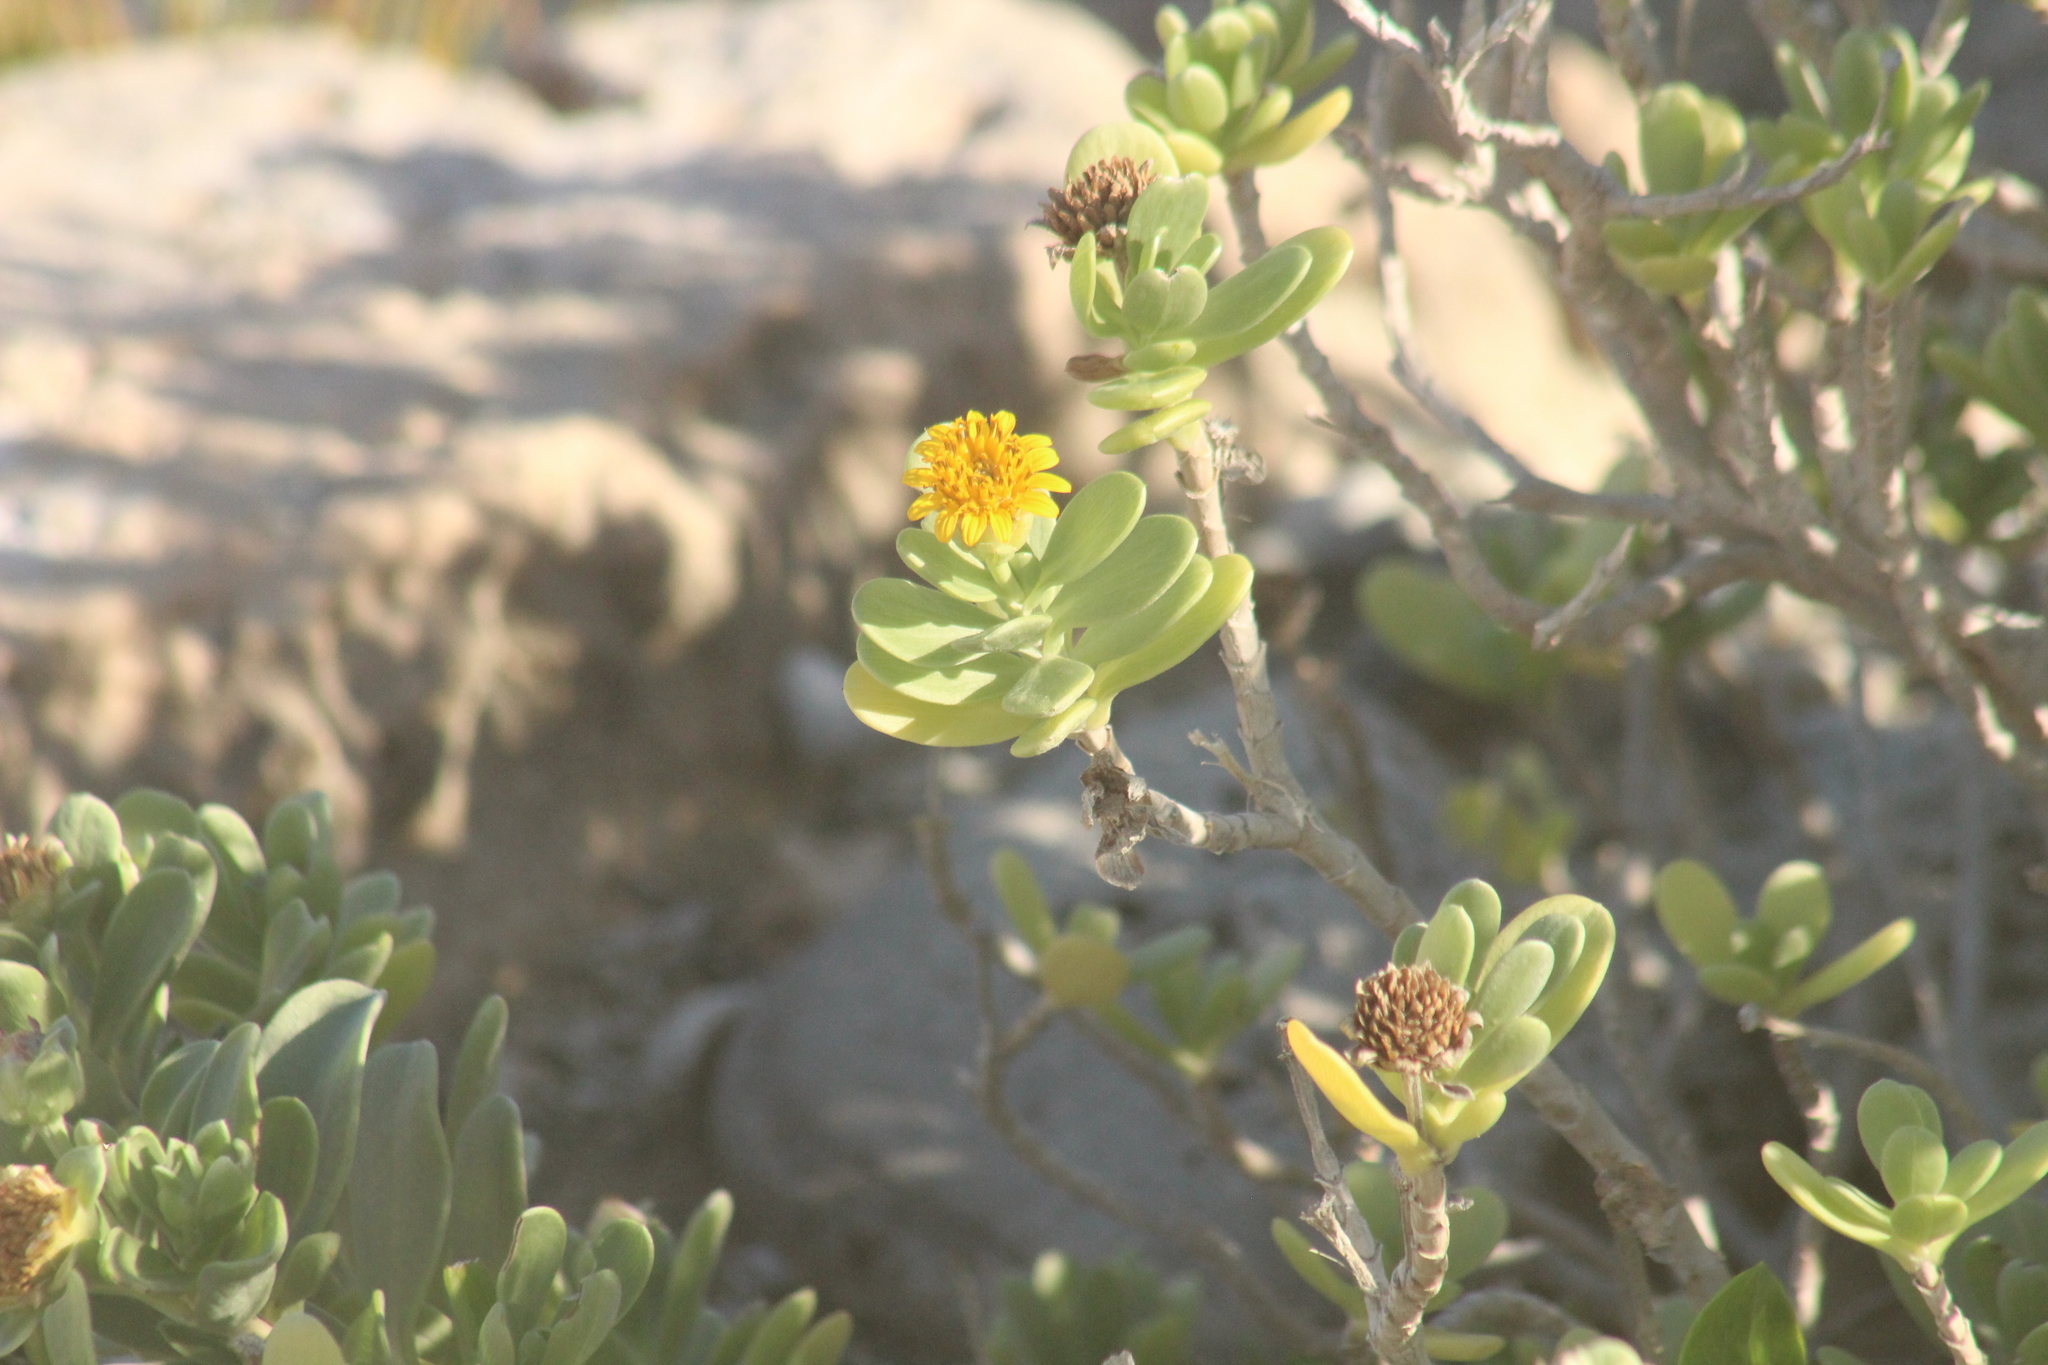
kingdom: Plantae
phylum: Tracheophyta
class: Magnoliopsida
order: Asterales
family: Asteraceae
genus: Borrichia
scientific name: Borrichia arborescens
